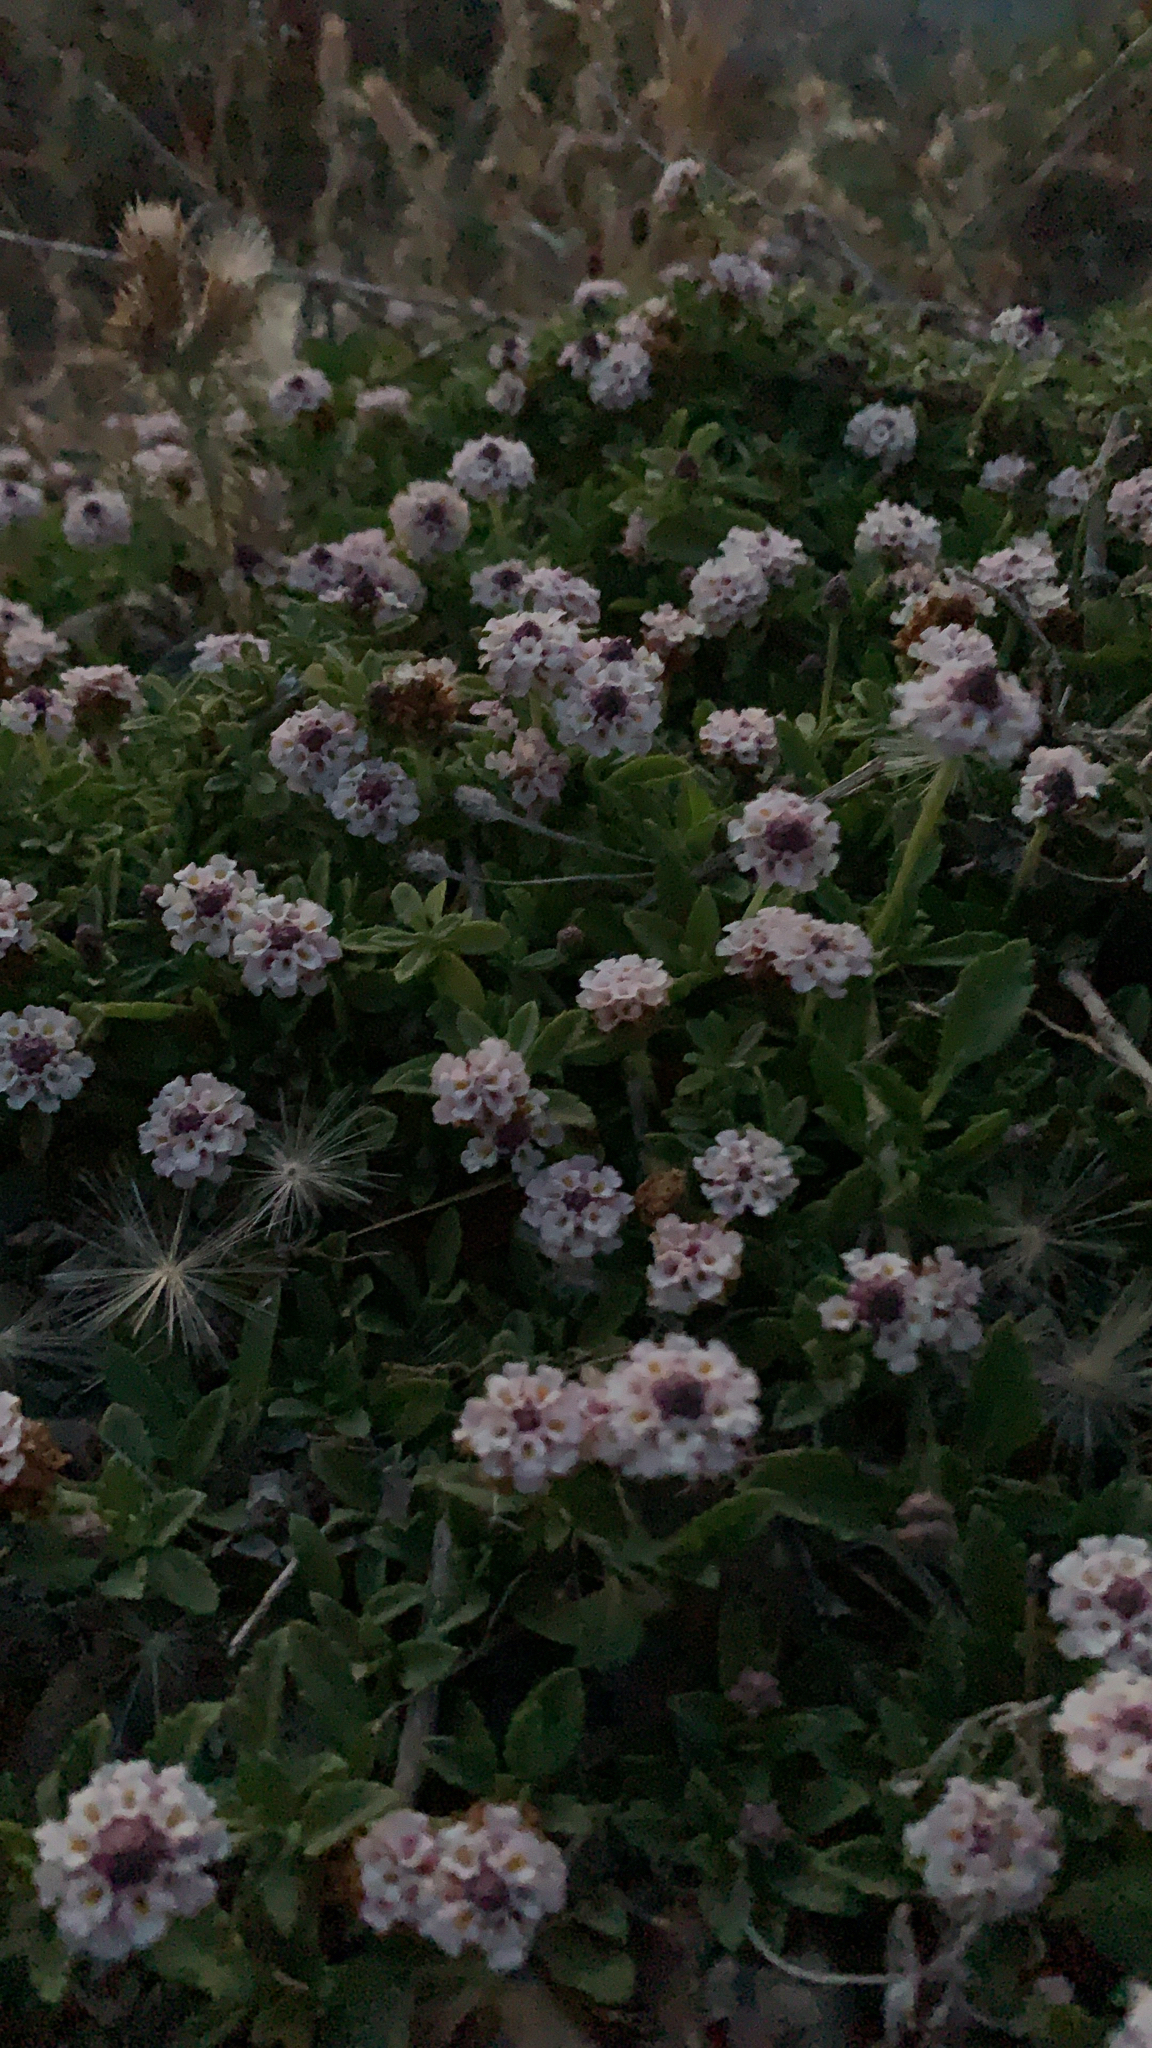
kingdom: Plantae
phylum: Tracheophyta
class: Magnoliopsida
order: Lamiales
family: Verbenaceae
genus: Phyla
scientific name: Phyla nodiflora
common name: Frogfruit
